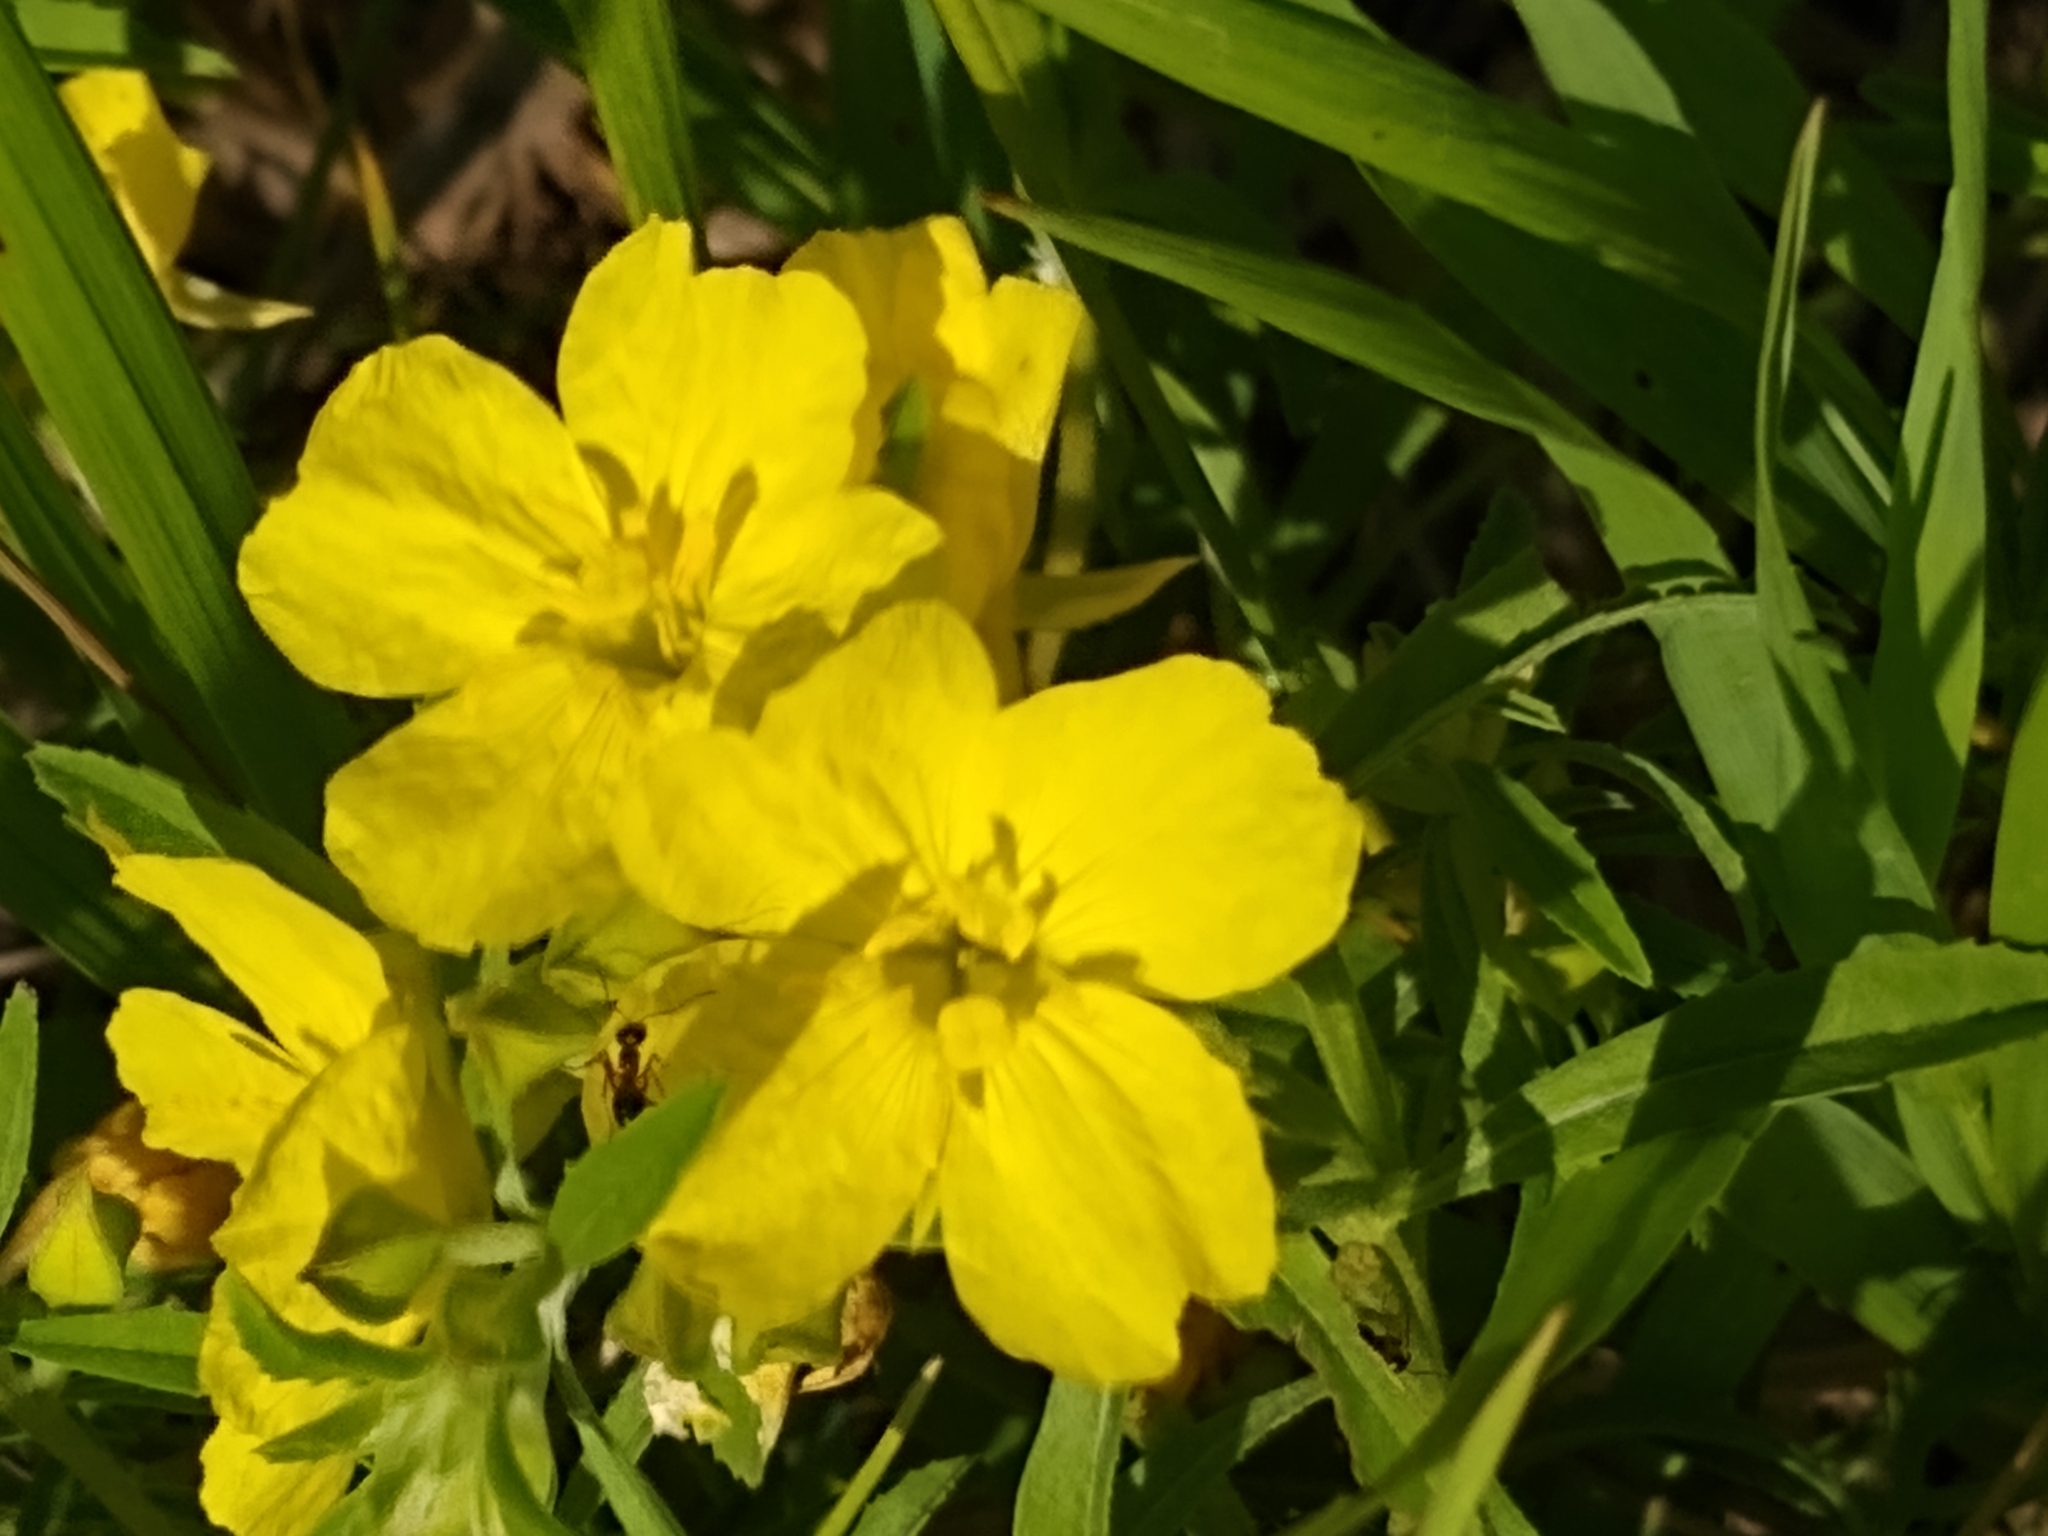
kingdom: Plantae
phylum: Tracheophyta
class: Magnoliopsida
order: Myrtales
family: Onagraceae
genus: Oenothera
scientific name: Oenothera serrulata
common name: Half-shrub calylophus
